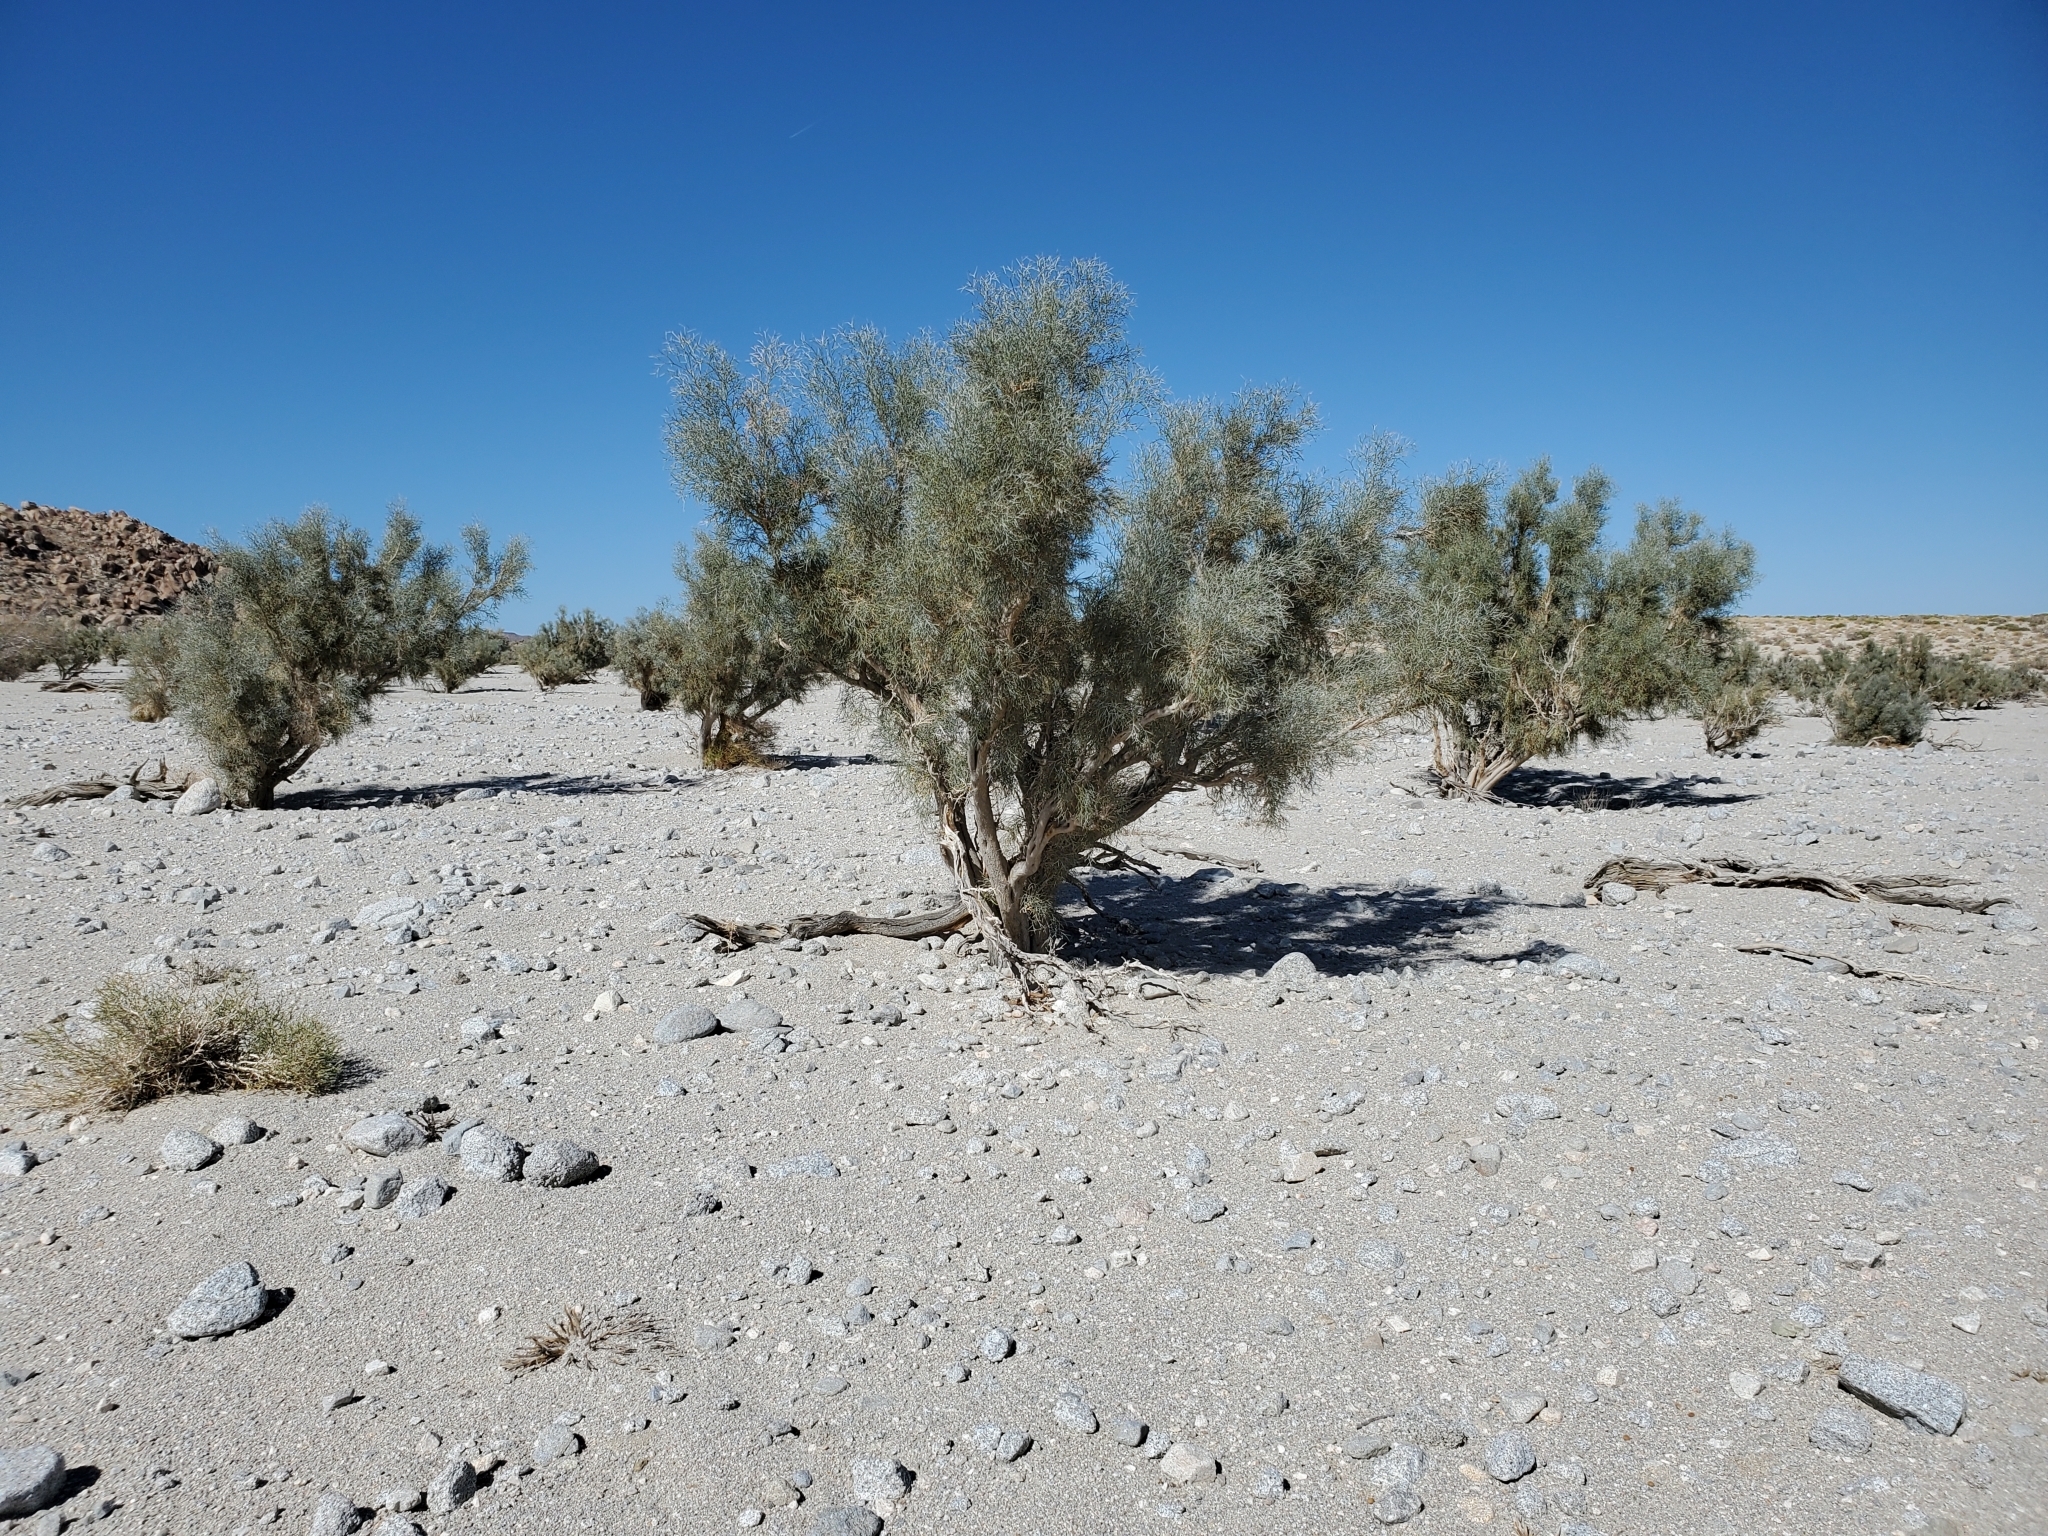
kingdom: Plantae
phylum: Tracheophyta
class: Magnoliopsida
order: Fabales
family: Fabaceae
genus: Psorothamnus
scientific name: Psorothamnus spinosus
